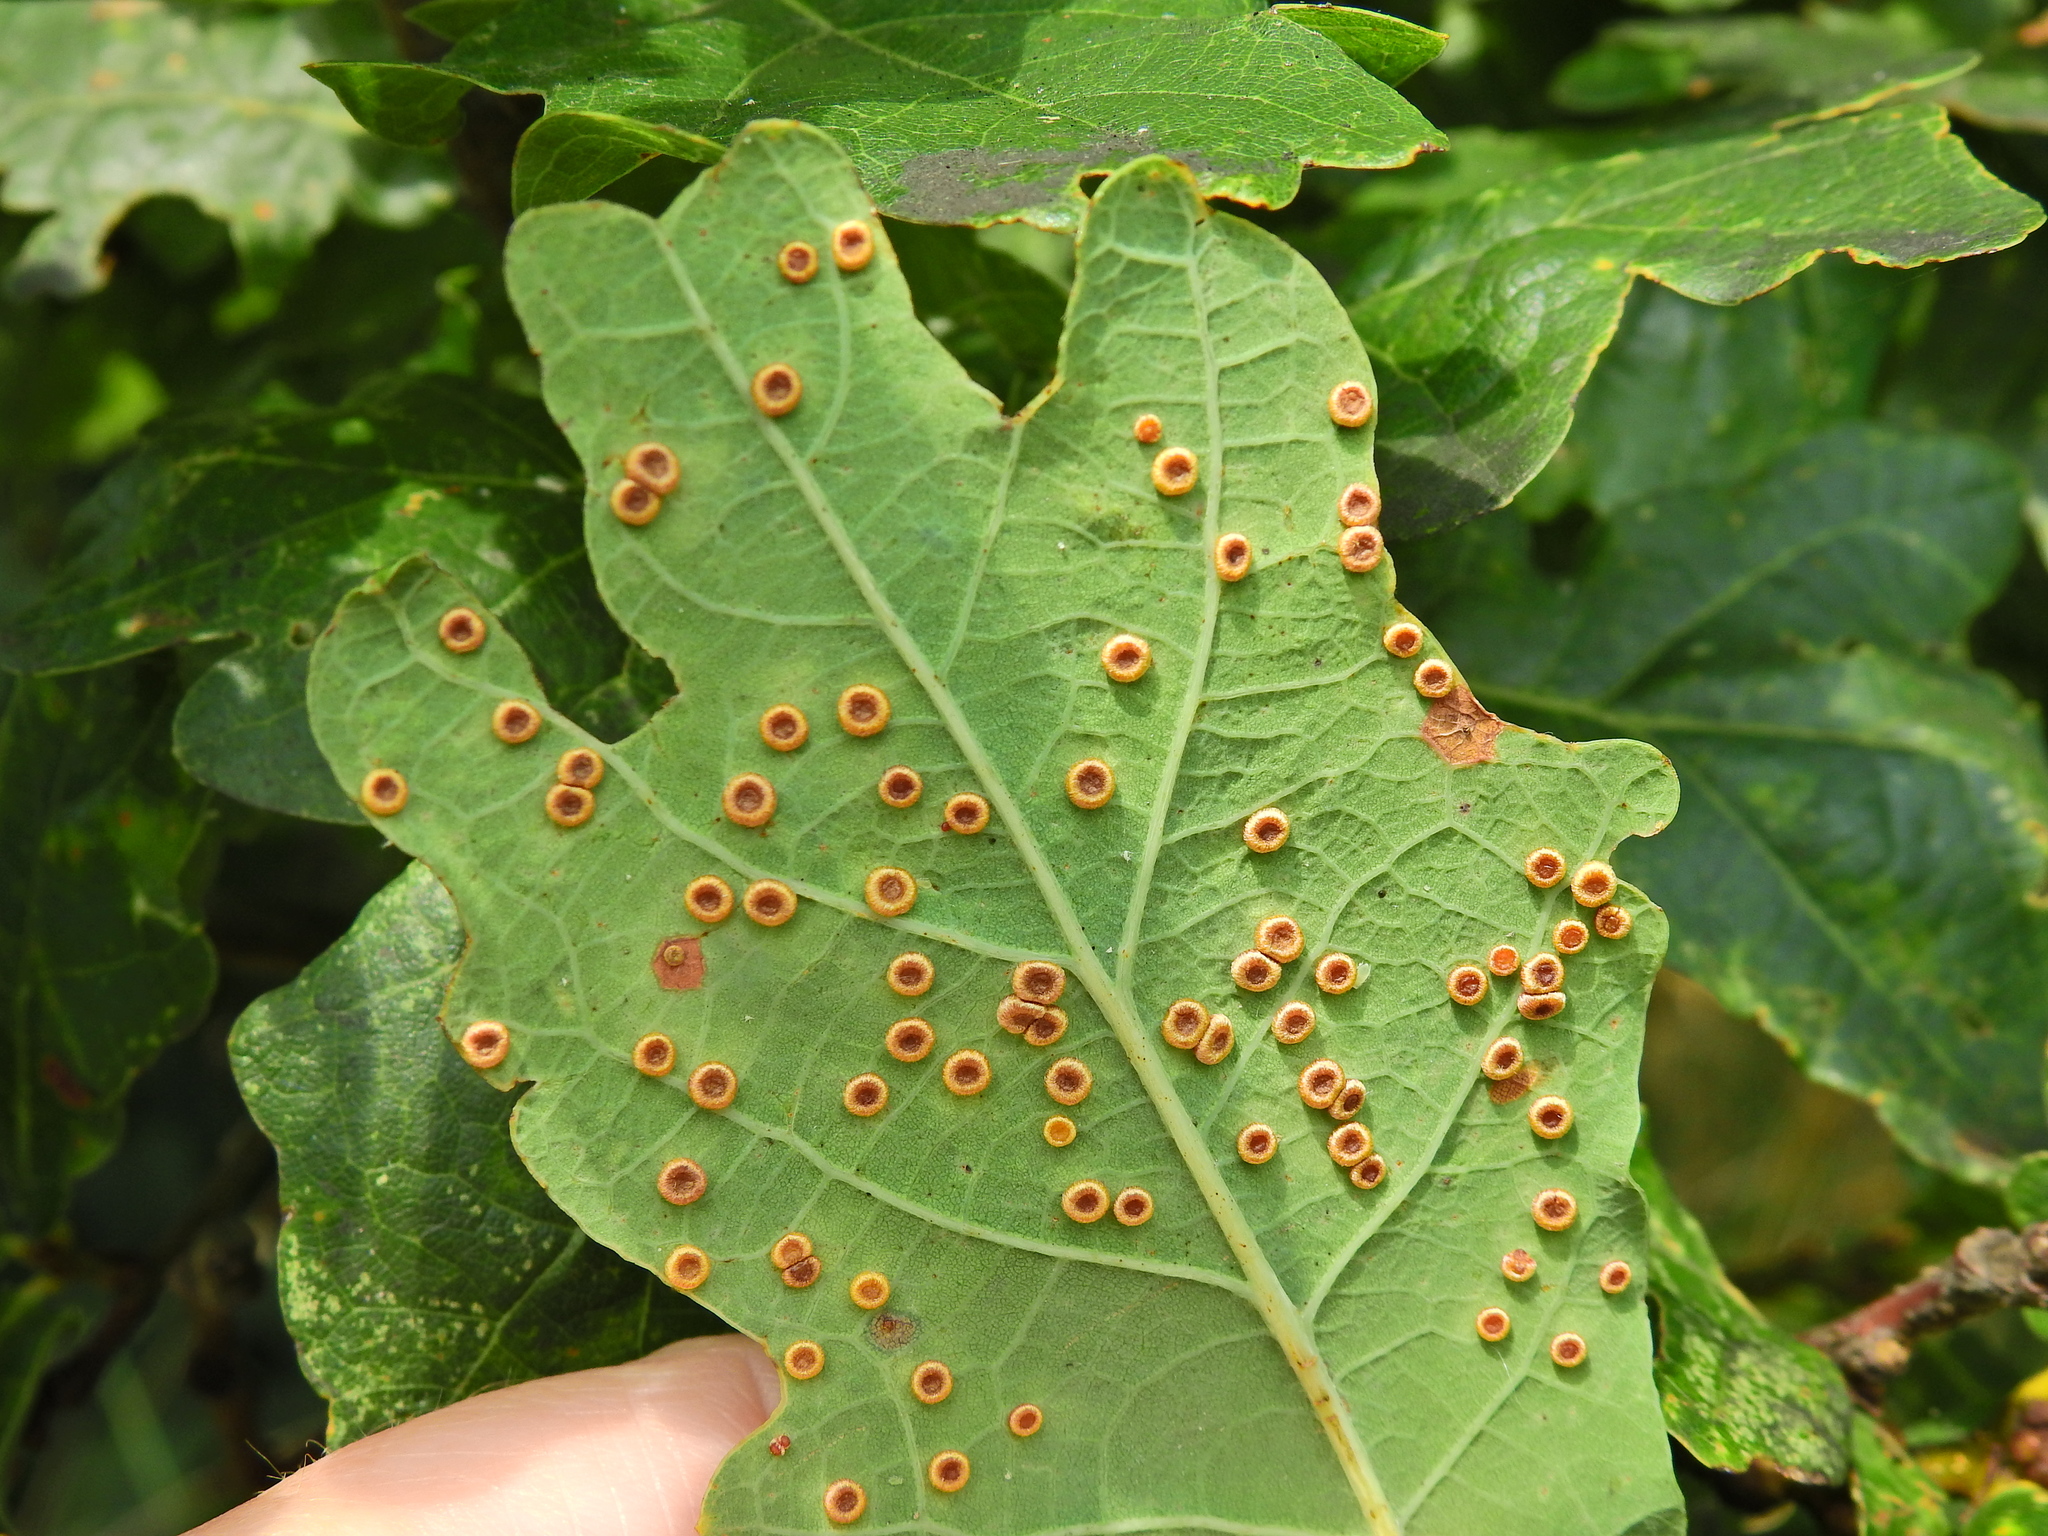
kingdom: Animalia
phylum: Arthropoda
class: Insecta
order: Hymenoptera
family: Cynipidae
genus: Neuroterus
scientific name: Neuroterus numismalis
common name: Silk-button spangle gall
